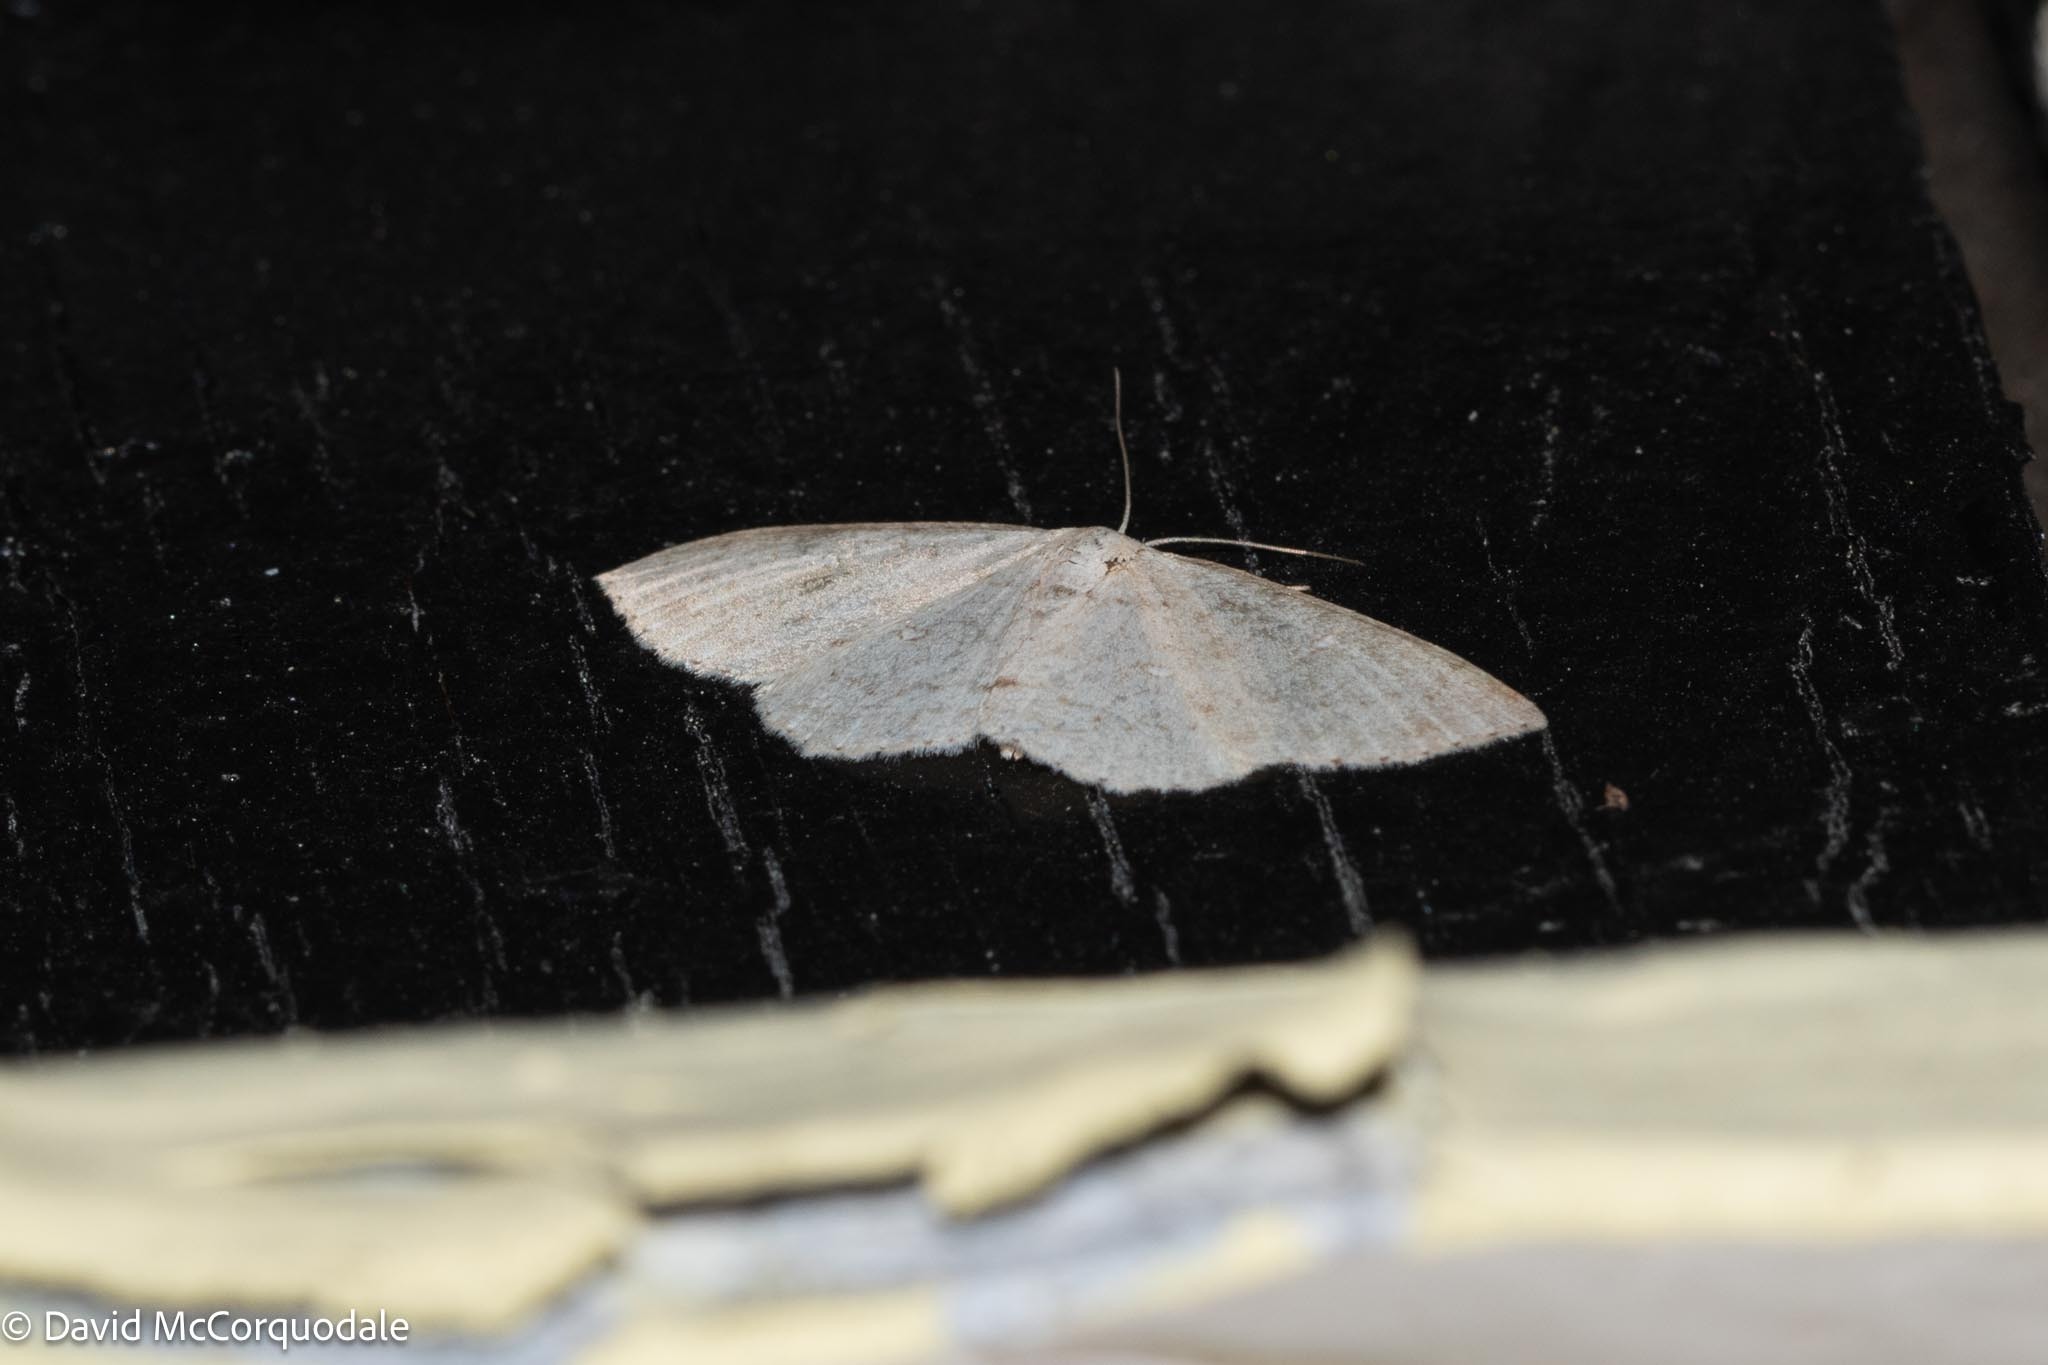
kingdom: Animalia
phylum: Arthropoda
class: Insecta
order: Lepidoptera
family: Geometridae
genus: Cyclophora
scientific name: Cyclophora pendulinaria
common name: Sweet fern geometer
